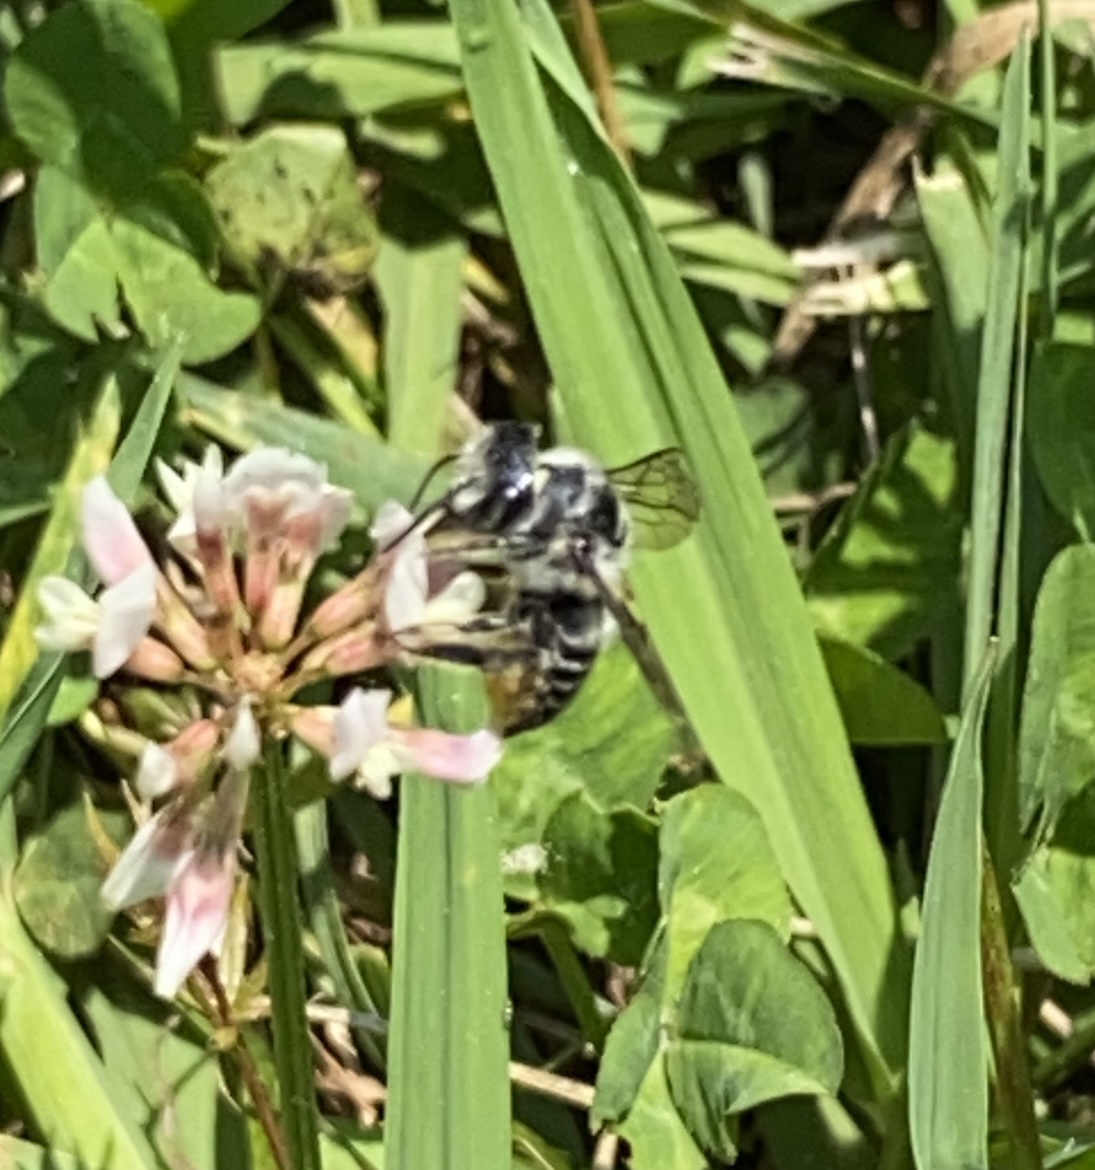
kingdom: Plantae
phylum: Tracheophyta
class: Magnoliopsida
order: Fabales
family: Fabaceae
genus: Trifolium
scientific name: Trifolium repens
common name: White clover
